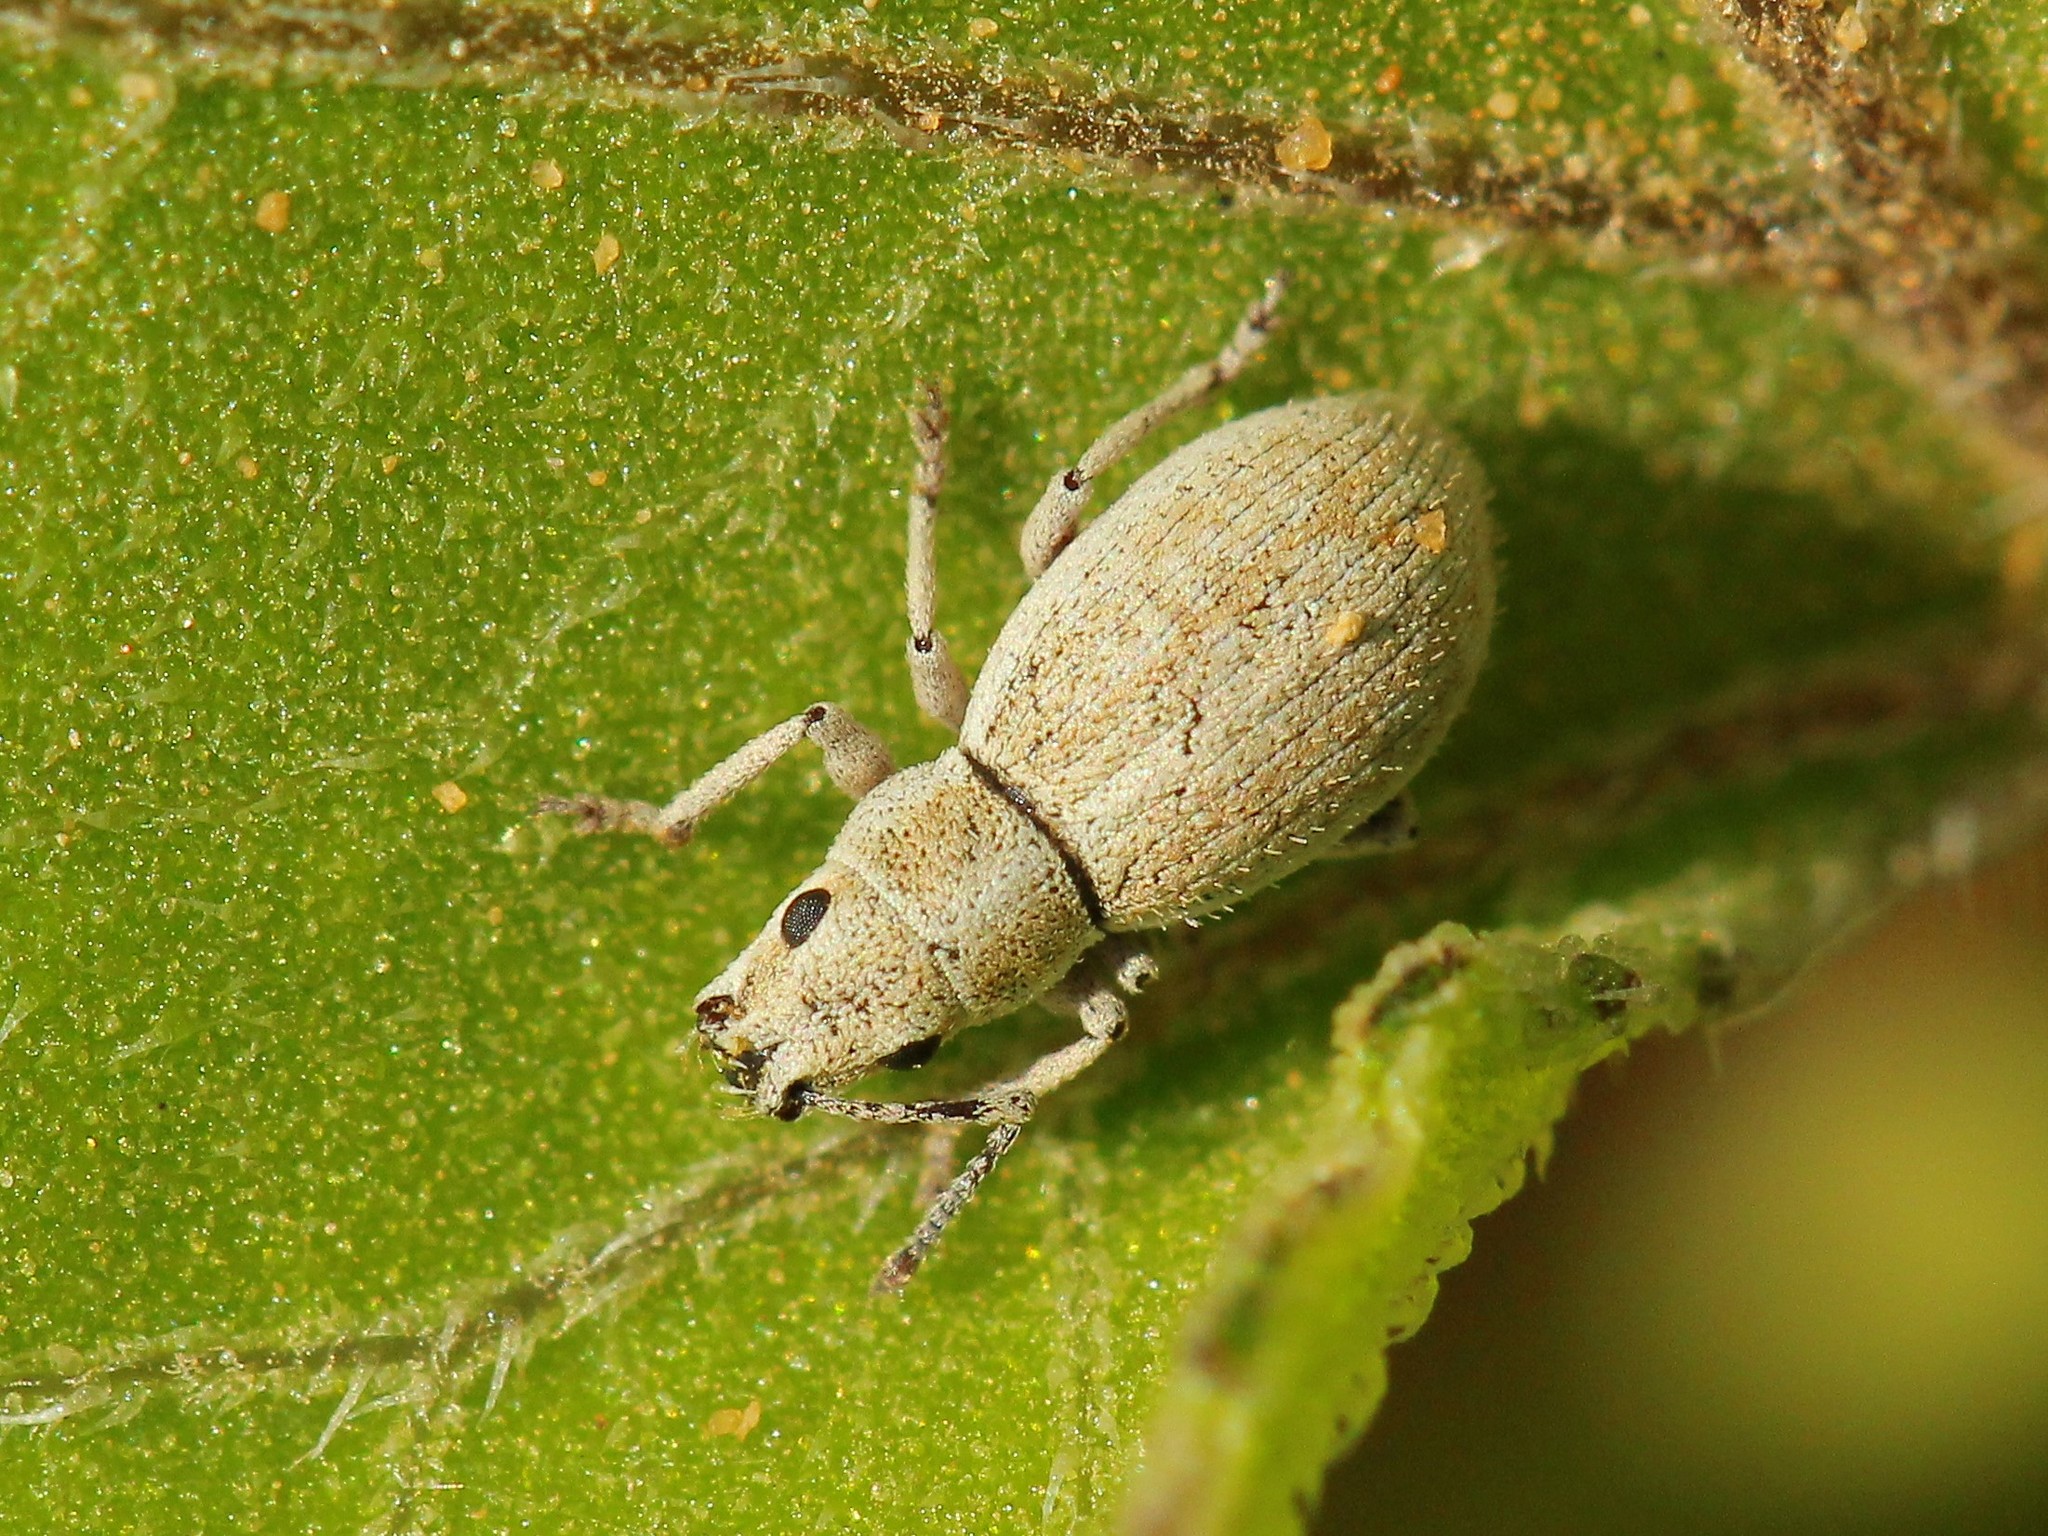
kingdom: Animalia
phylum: Arthropoda
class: Insecta
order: Coleoptera
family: Curculionidae
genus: Ptochus
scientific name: Ptochus porcellus
